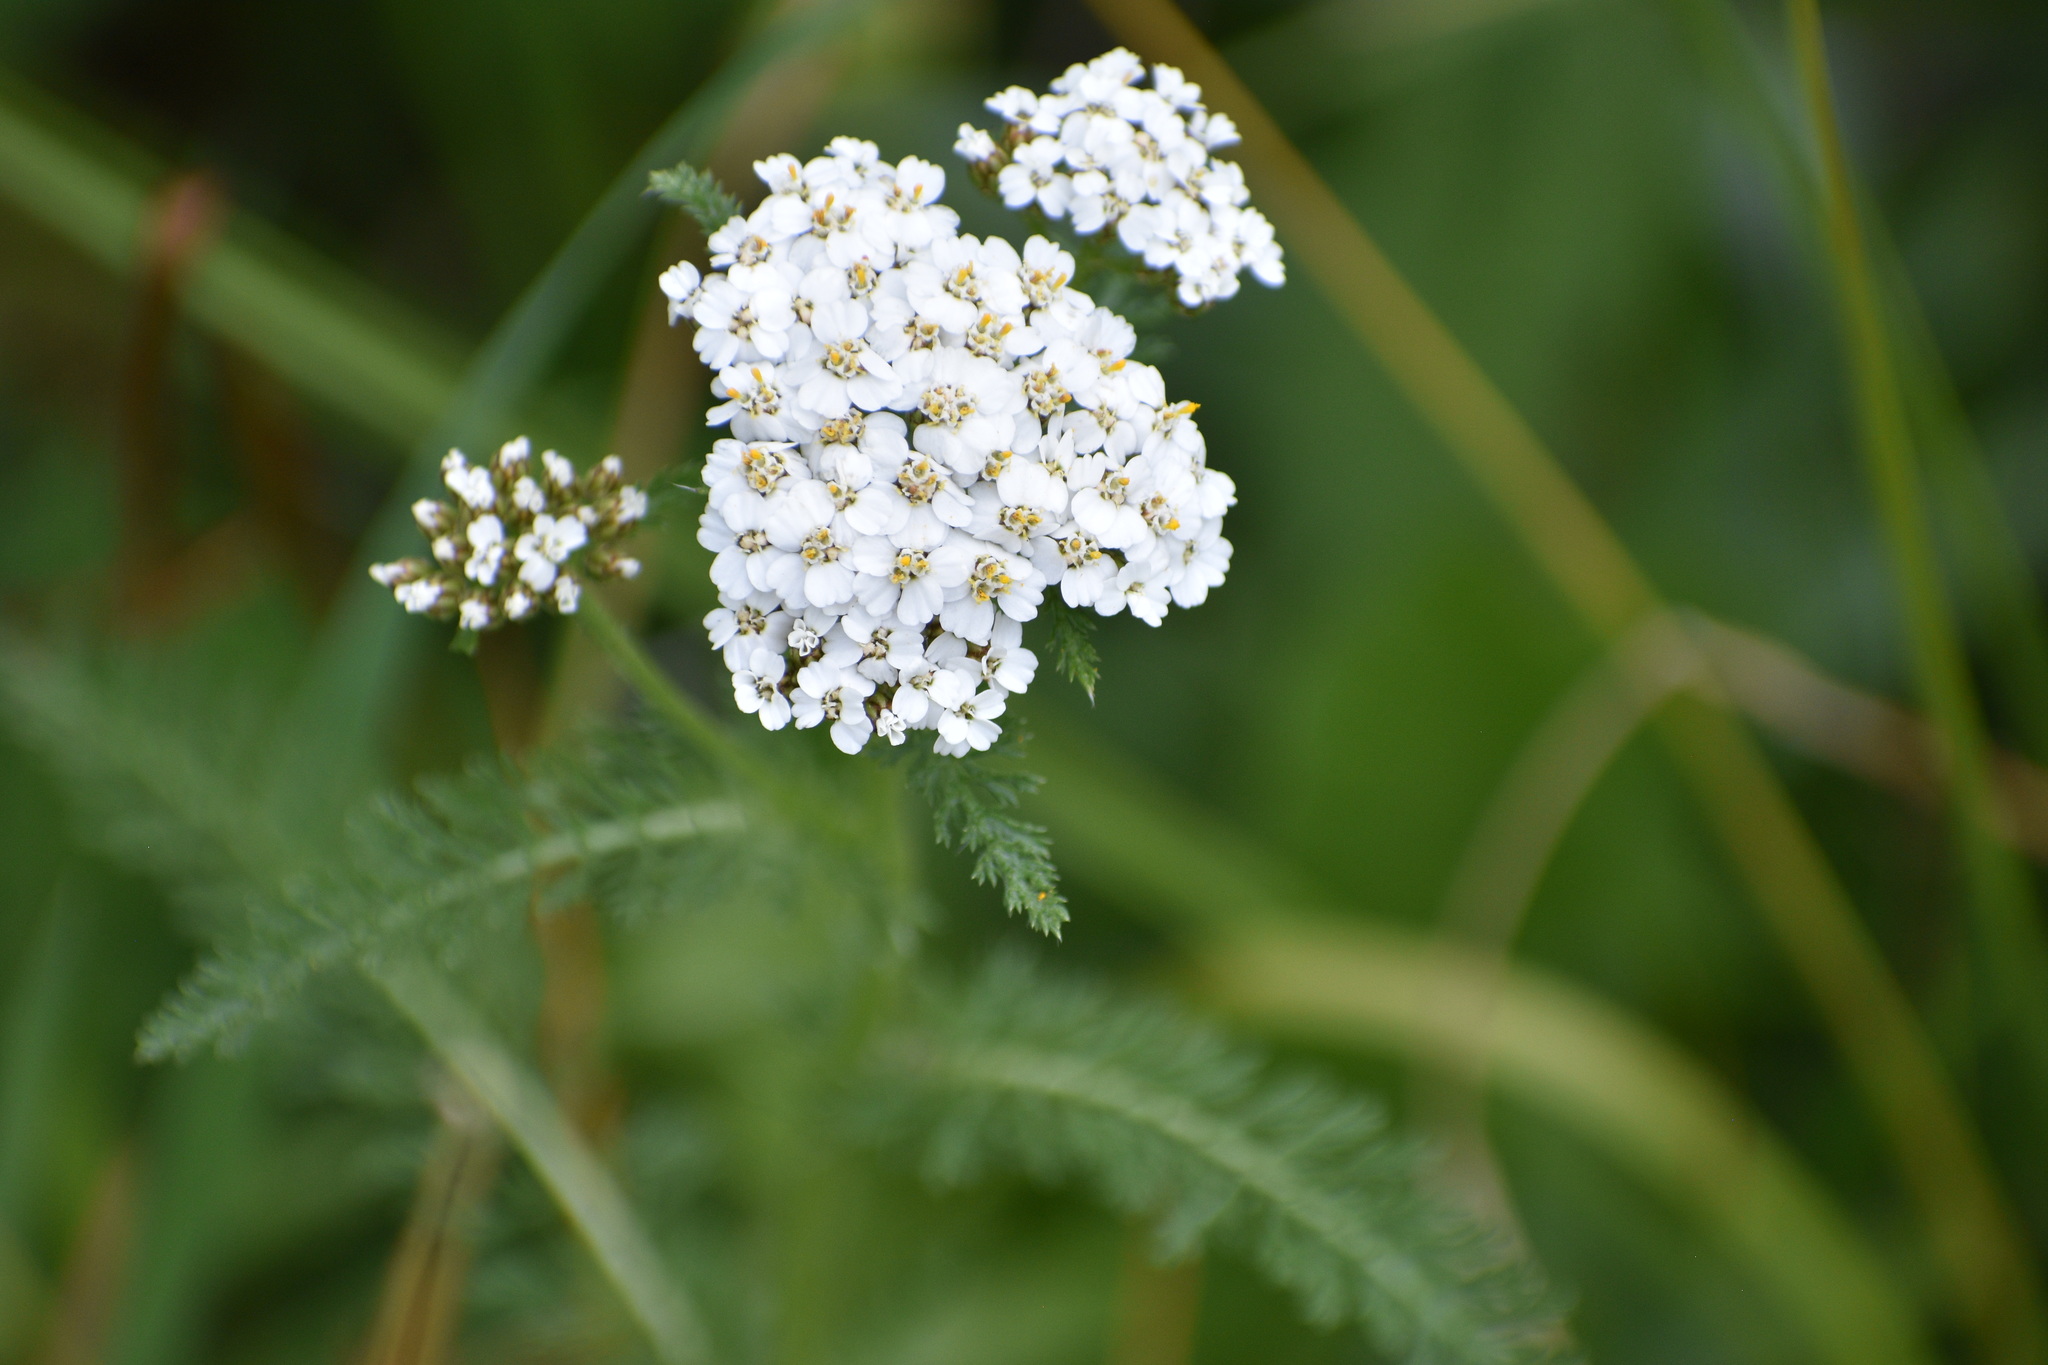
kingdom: Plantae
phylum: Tracheophyta
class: Magnoliopsida
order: Asterales
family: Asteraceae
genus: Achillea
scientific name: Achillea millefolium
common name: Yarrow
